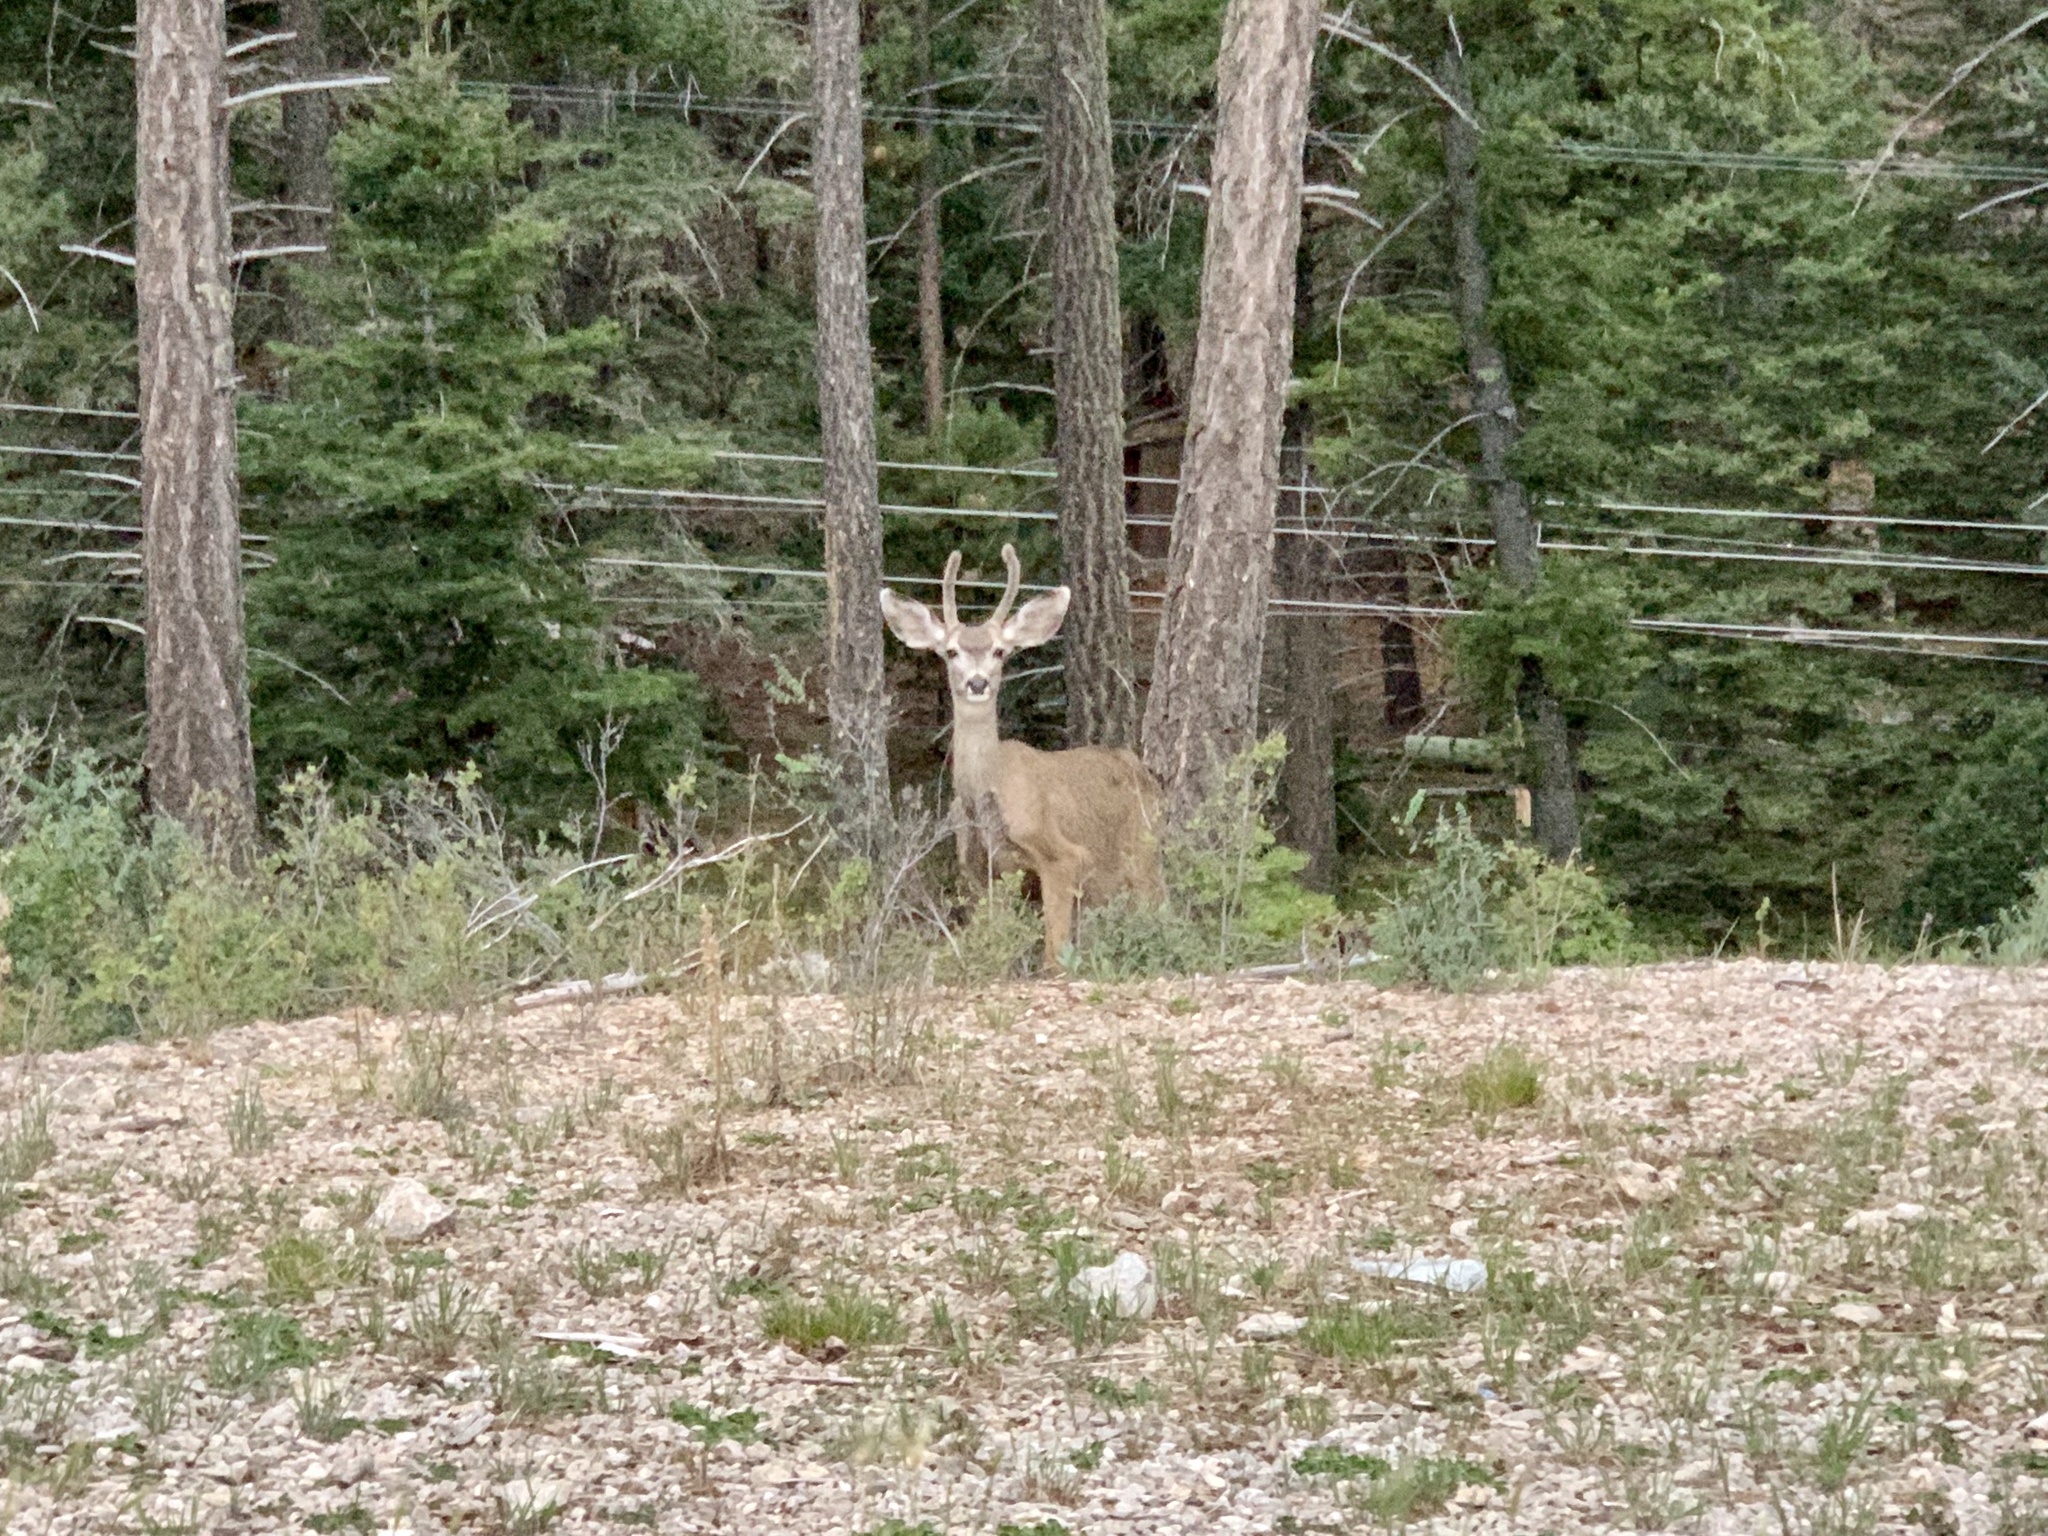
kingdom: Animalia
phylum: Chordata
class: Mammalia
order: Artiodactyla
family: Cervidae
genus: Odocoileus
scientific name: Odocoileus hemionus
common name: Mule deer
